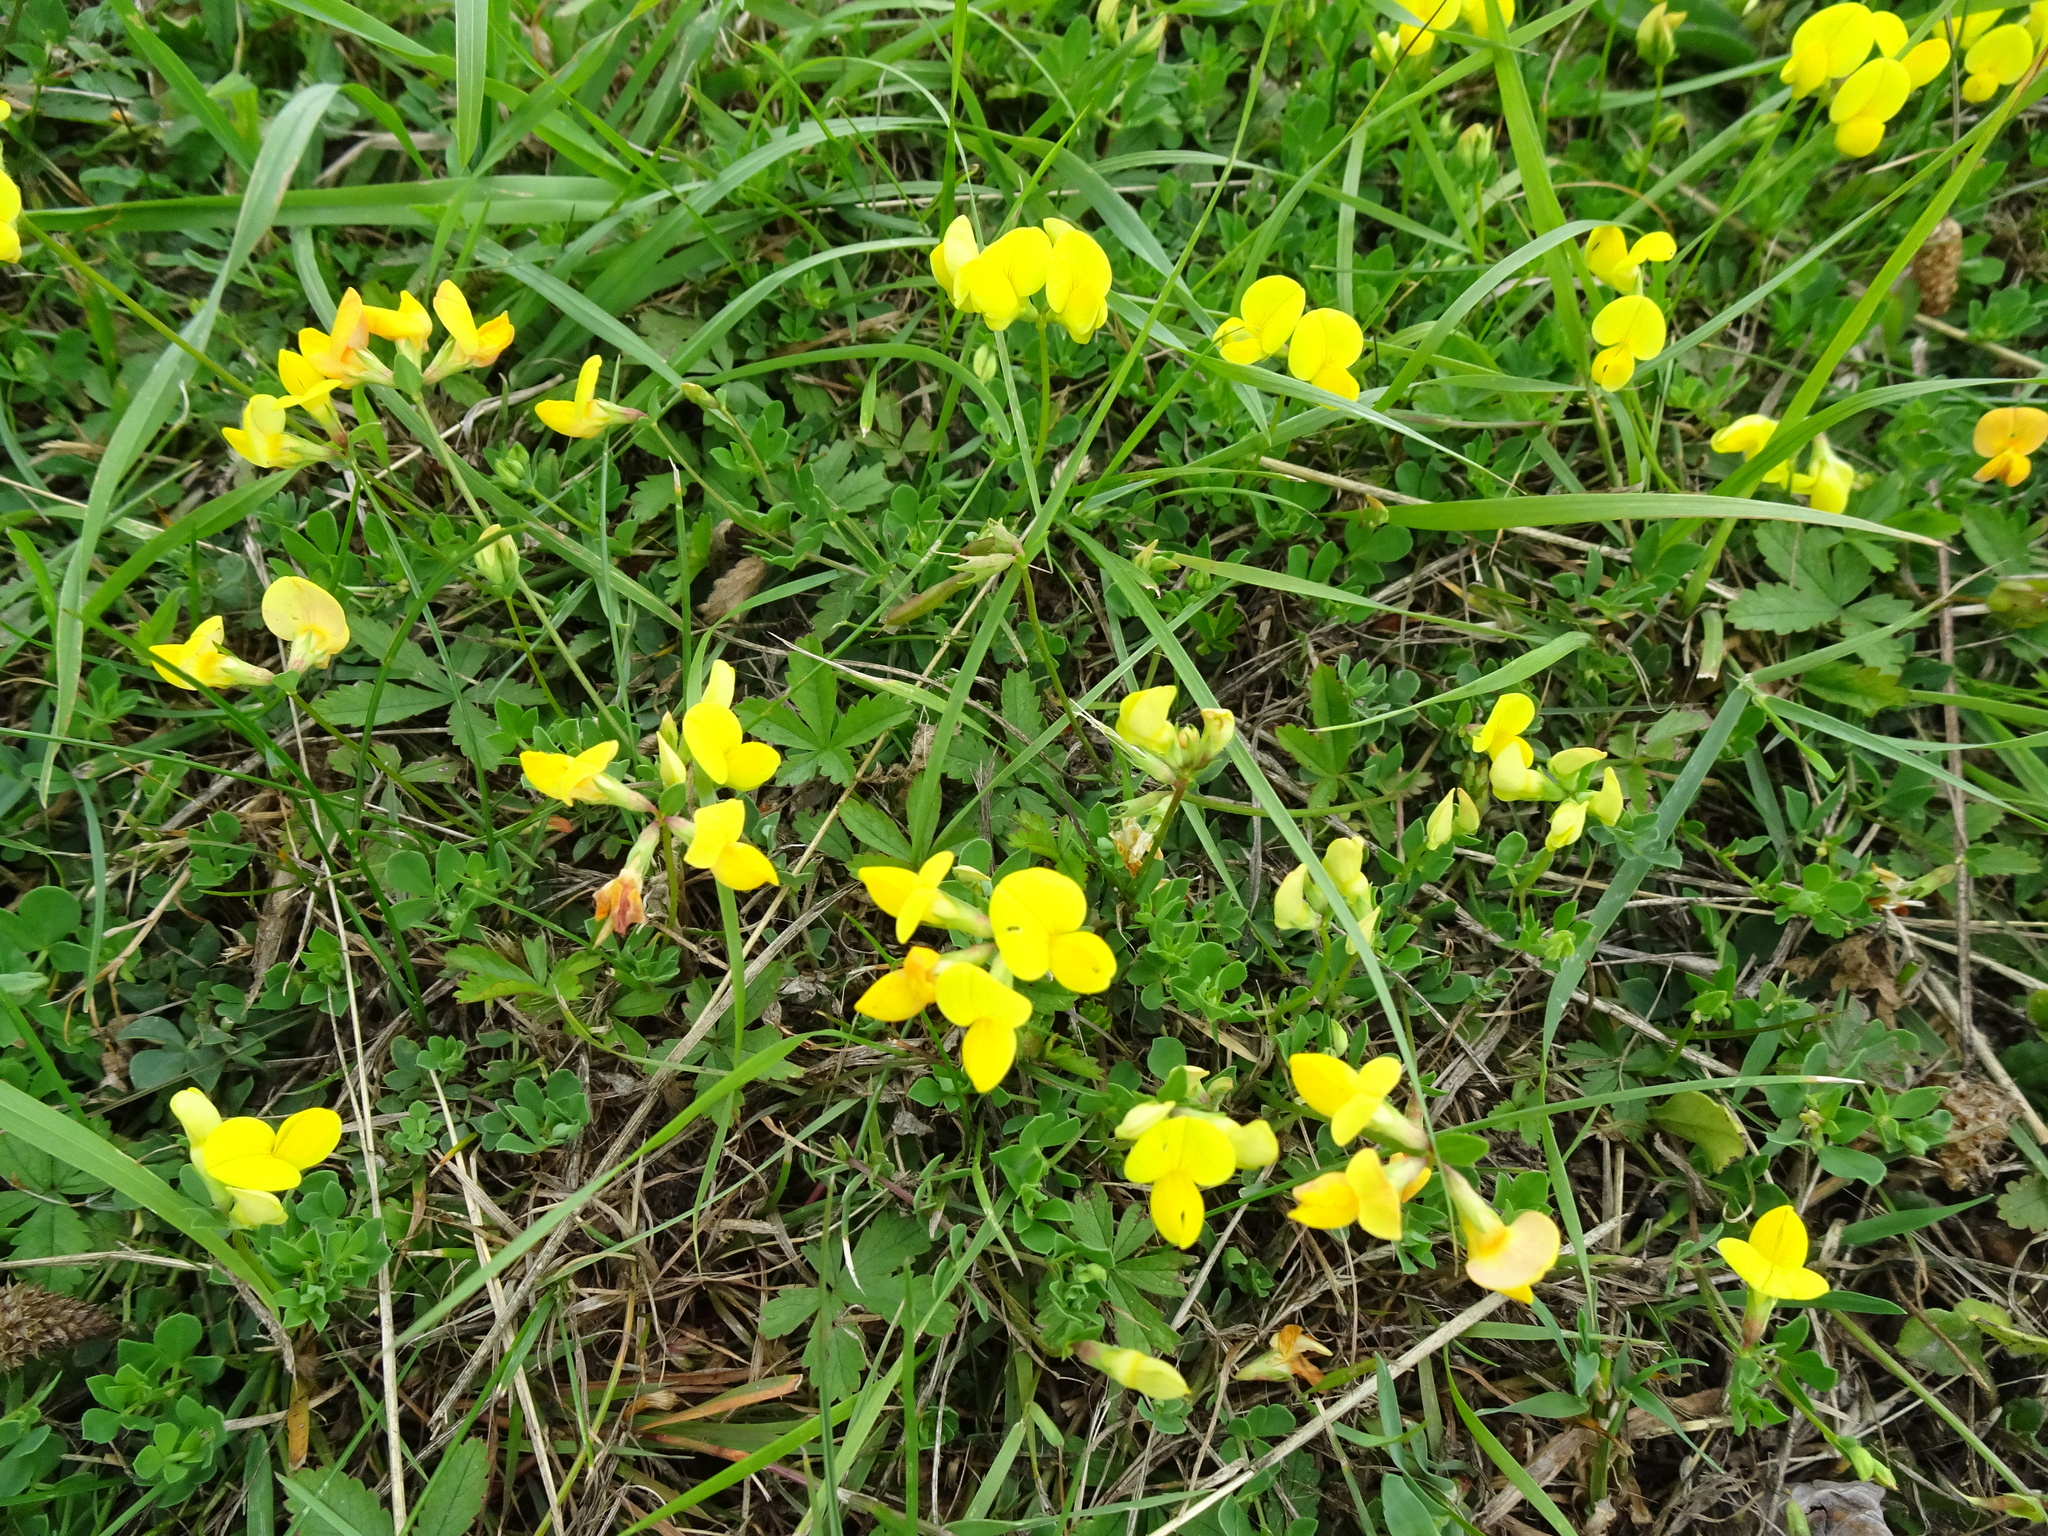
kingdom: Plantae
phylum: Tracheophyta
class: Magnoliopsida
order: Fabales
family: Fabaceae
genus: Lotus
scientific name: Lotus corniculatus
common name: Common bird's-foot-trefoil
